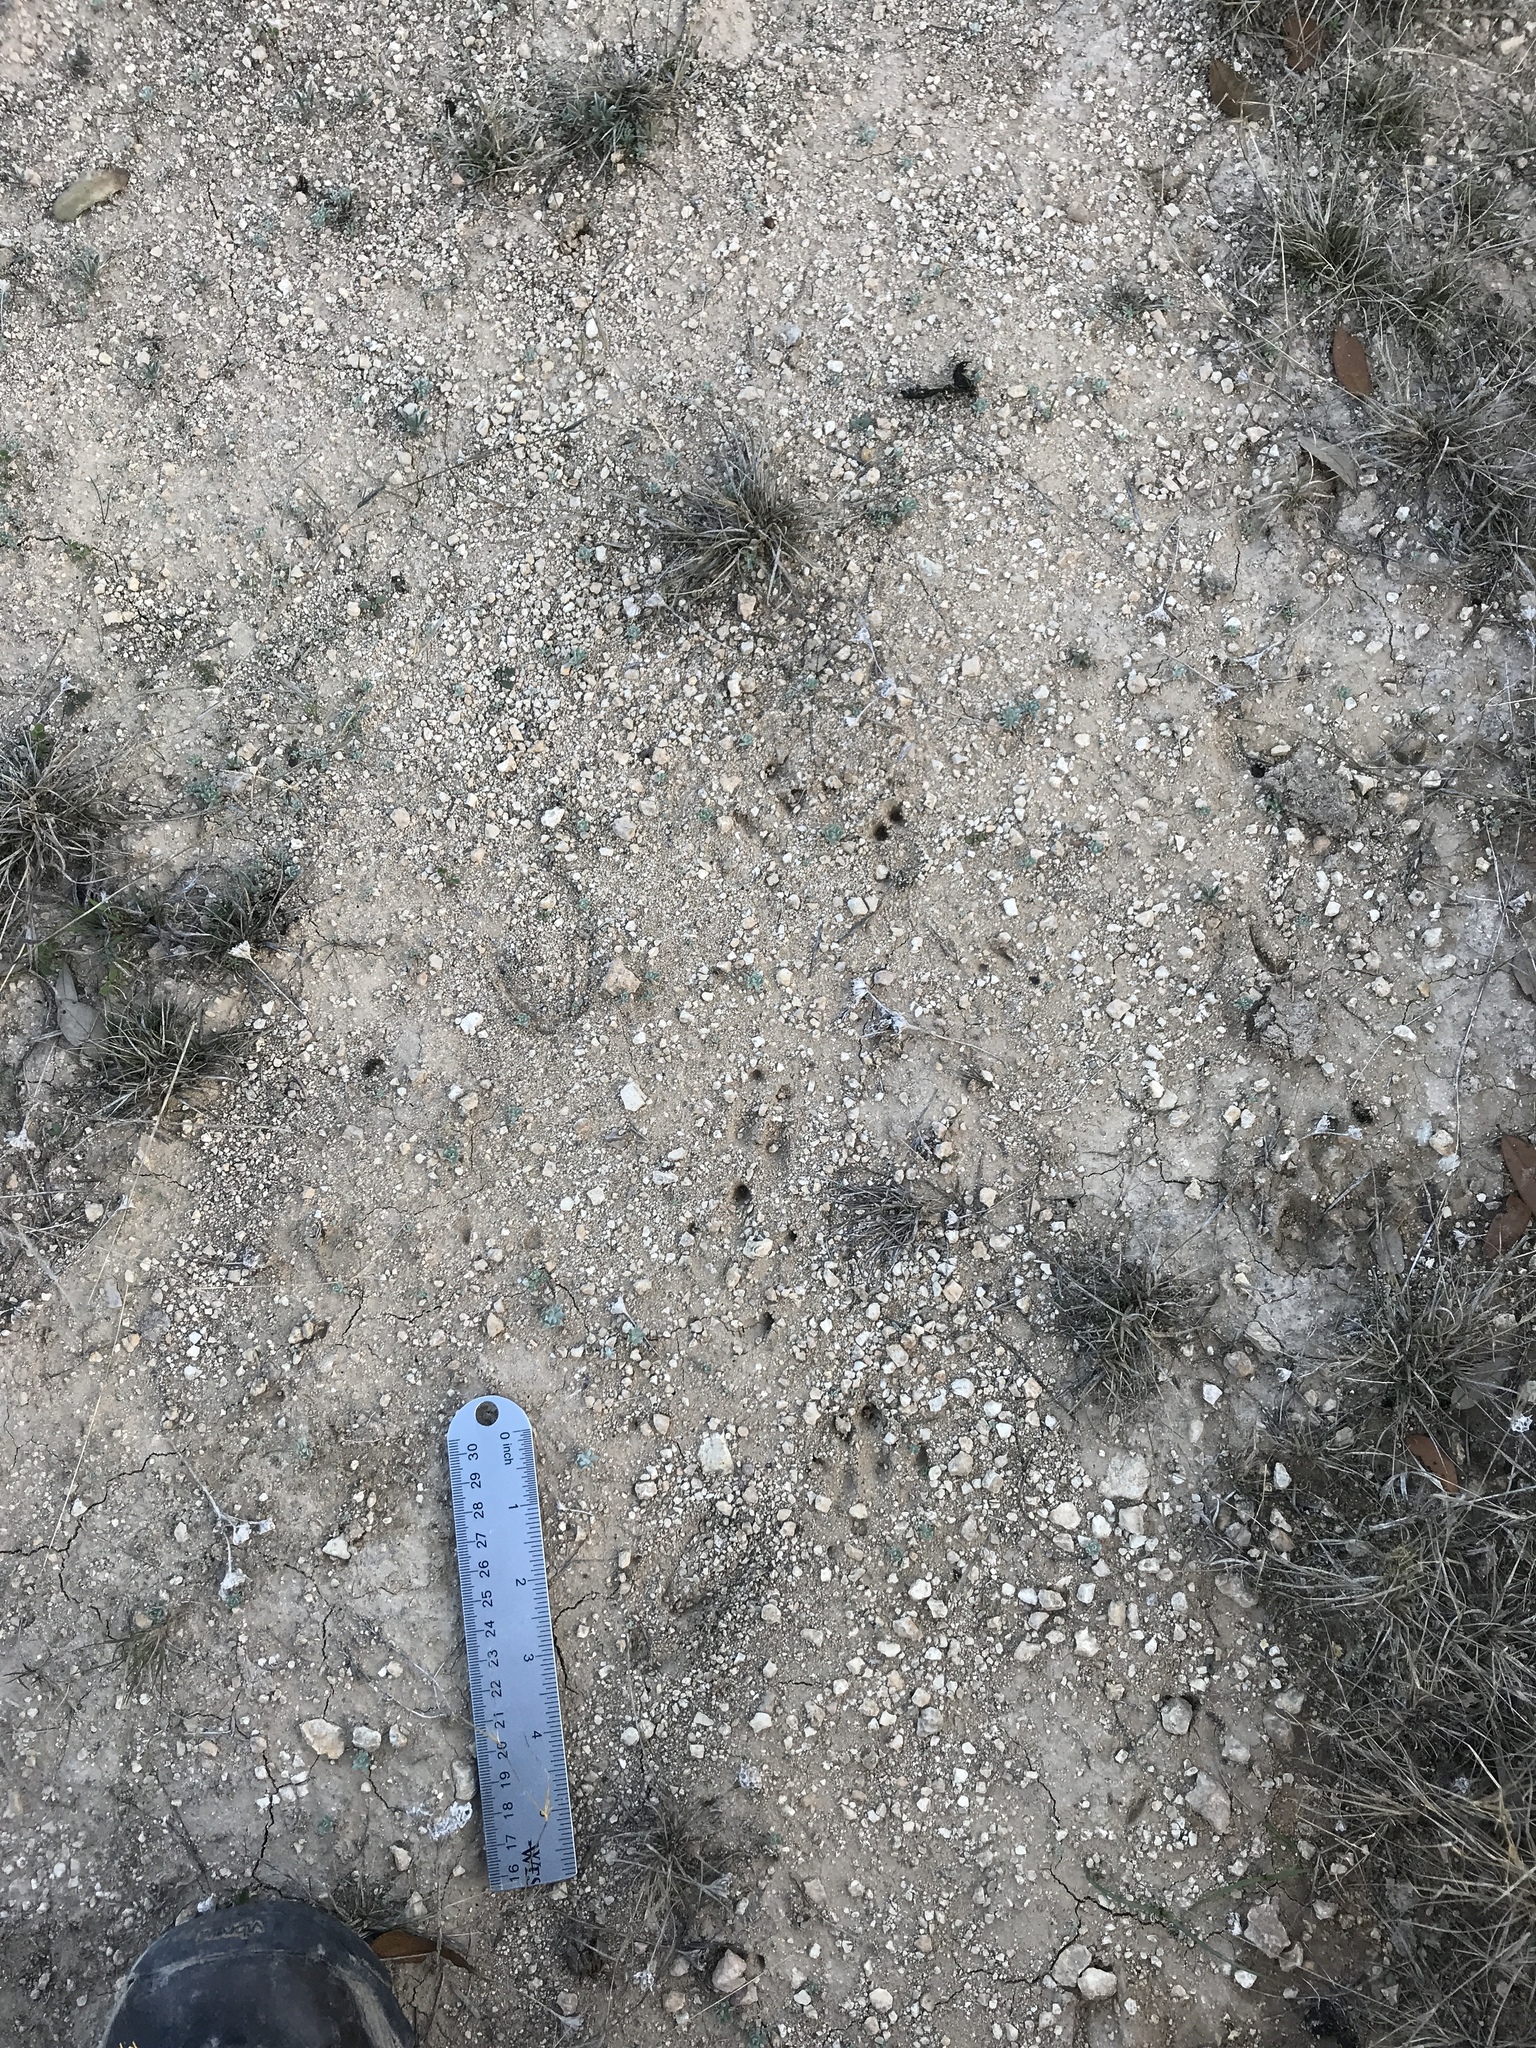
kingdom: Animalia
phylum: Chordata
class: Mammalia
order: Cingulata
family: Dasypodidae
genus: Dasypus
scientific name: Dasypus novemcinctus
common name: Nine-banded armadillo
